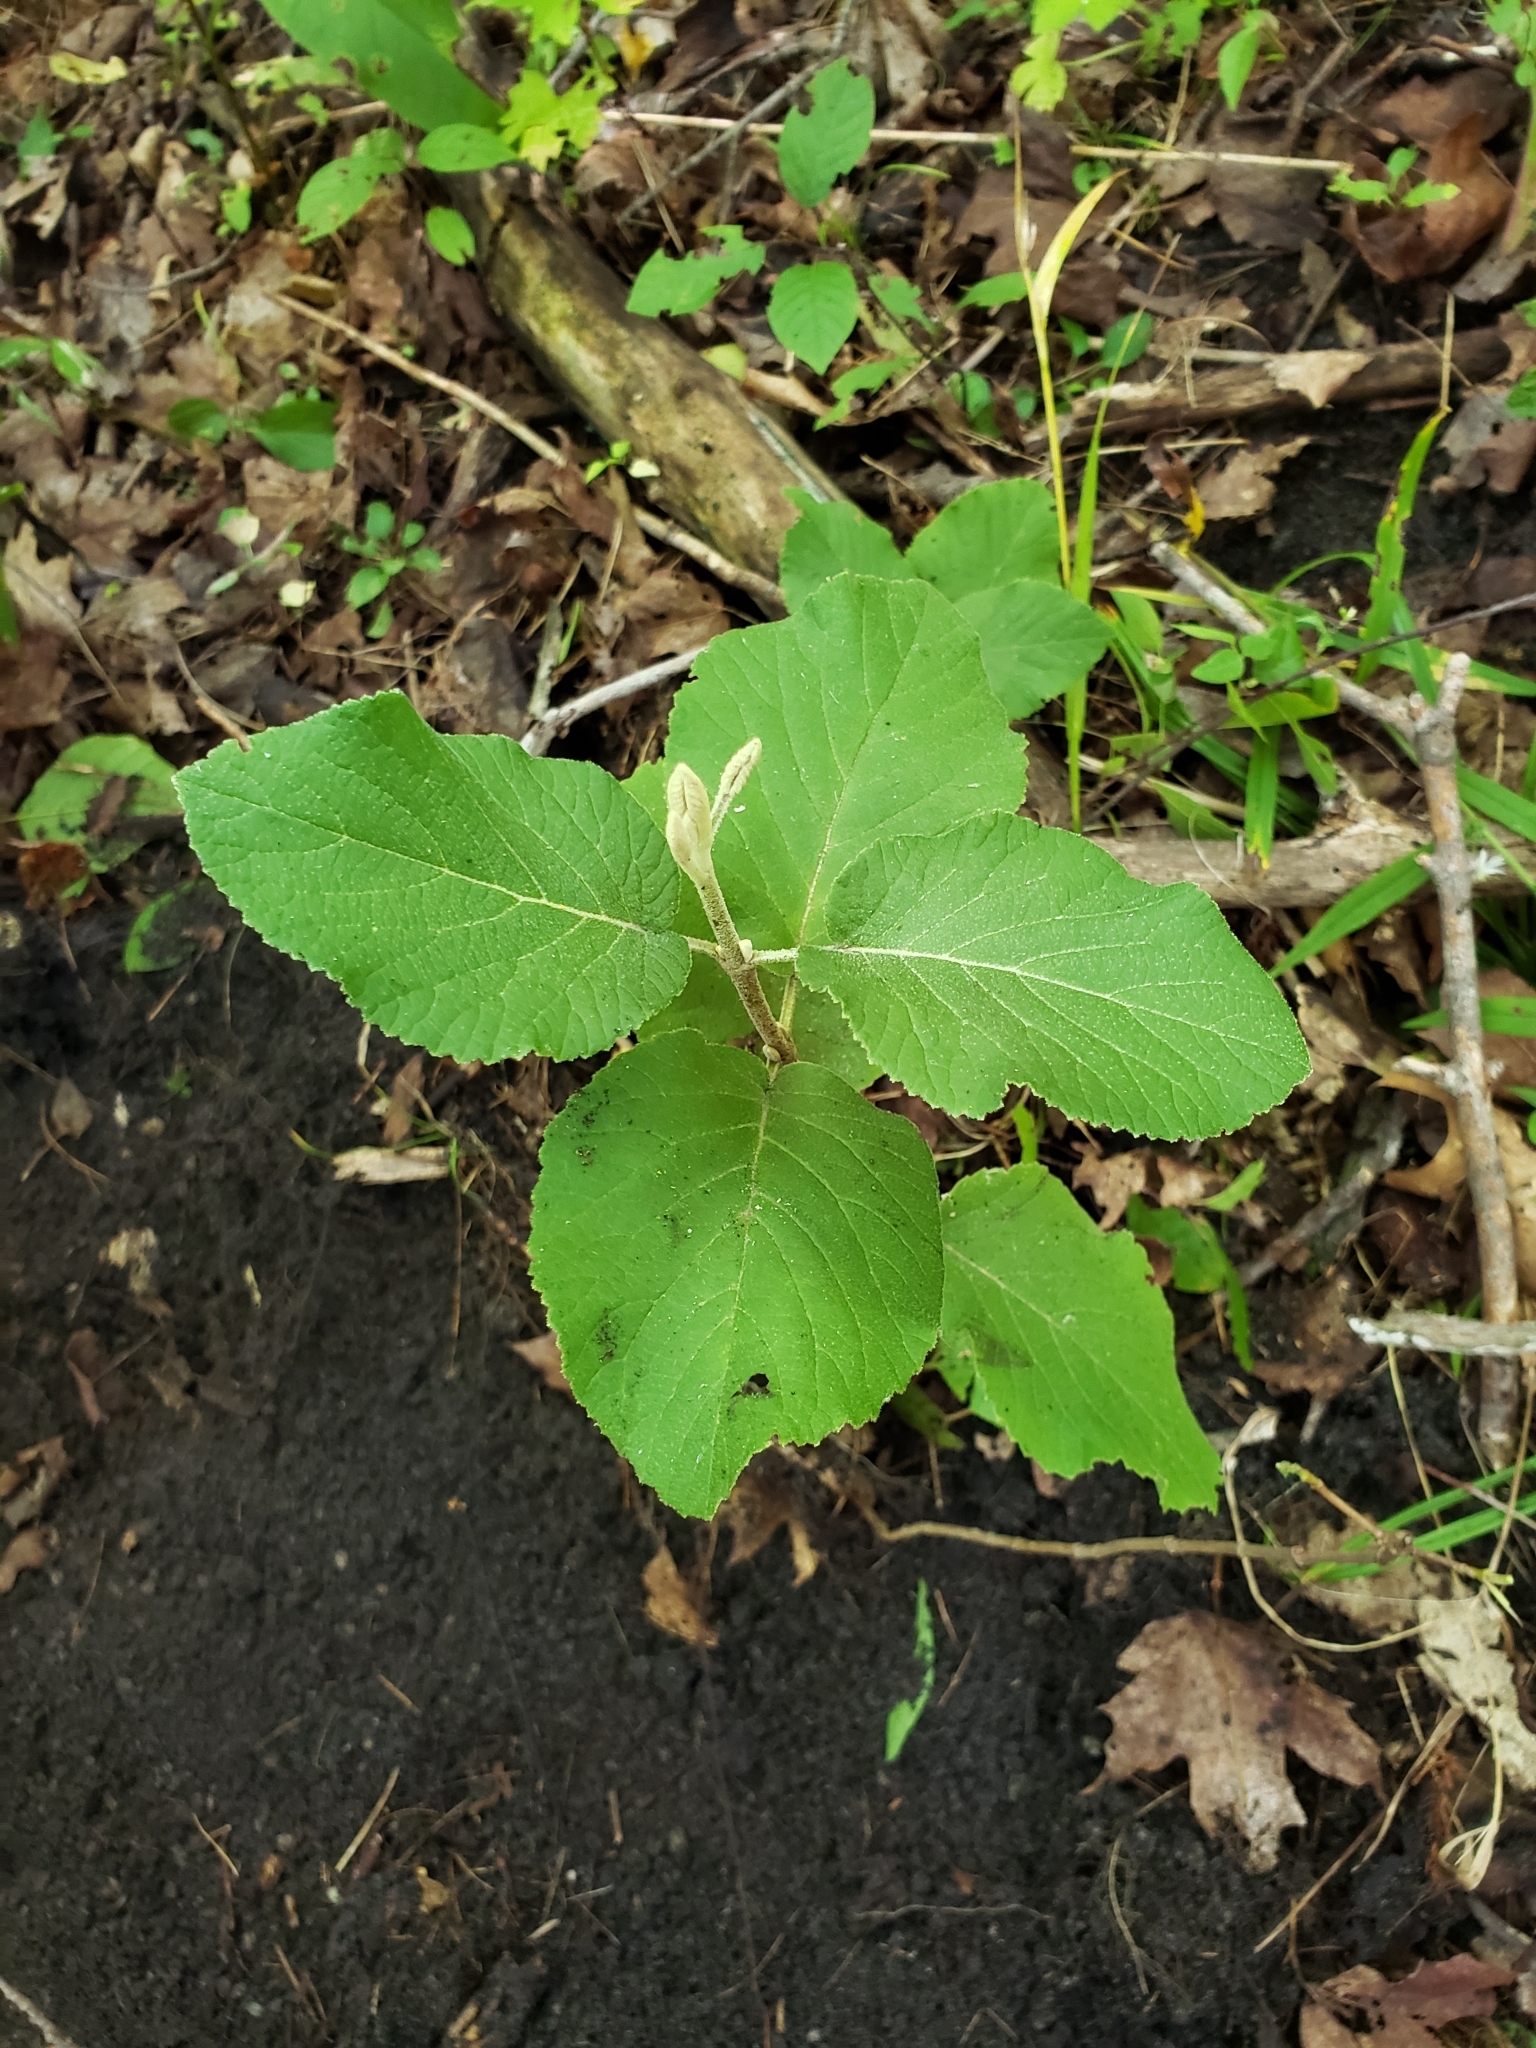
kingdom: Plantae
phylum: Tracheophyta
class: Magnoliopsida
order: Dipsacales
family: Viburnaceae
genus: Viburnum
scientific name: Viburnum lantana
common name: Wayfaring tree
